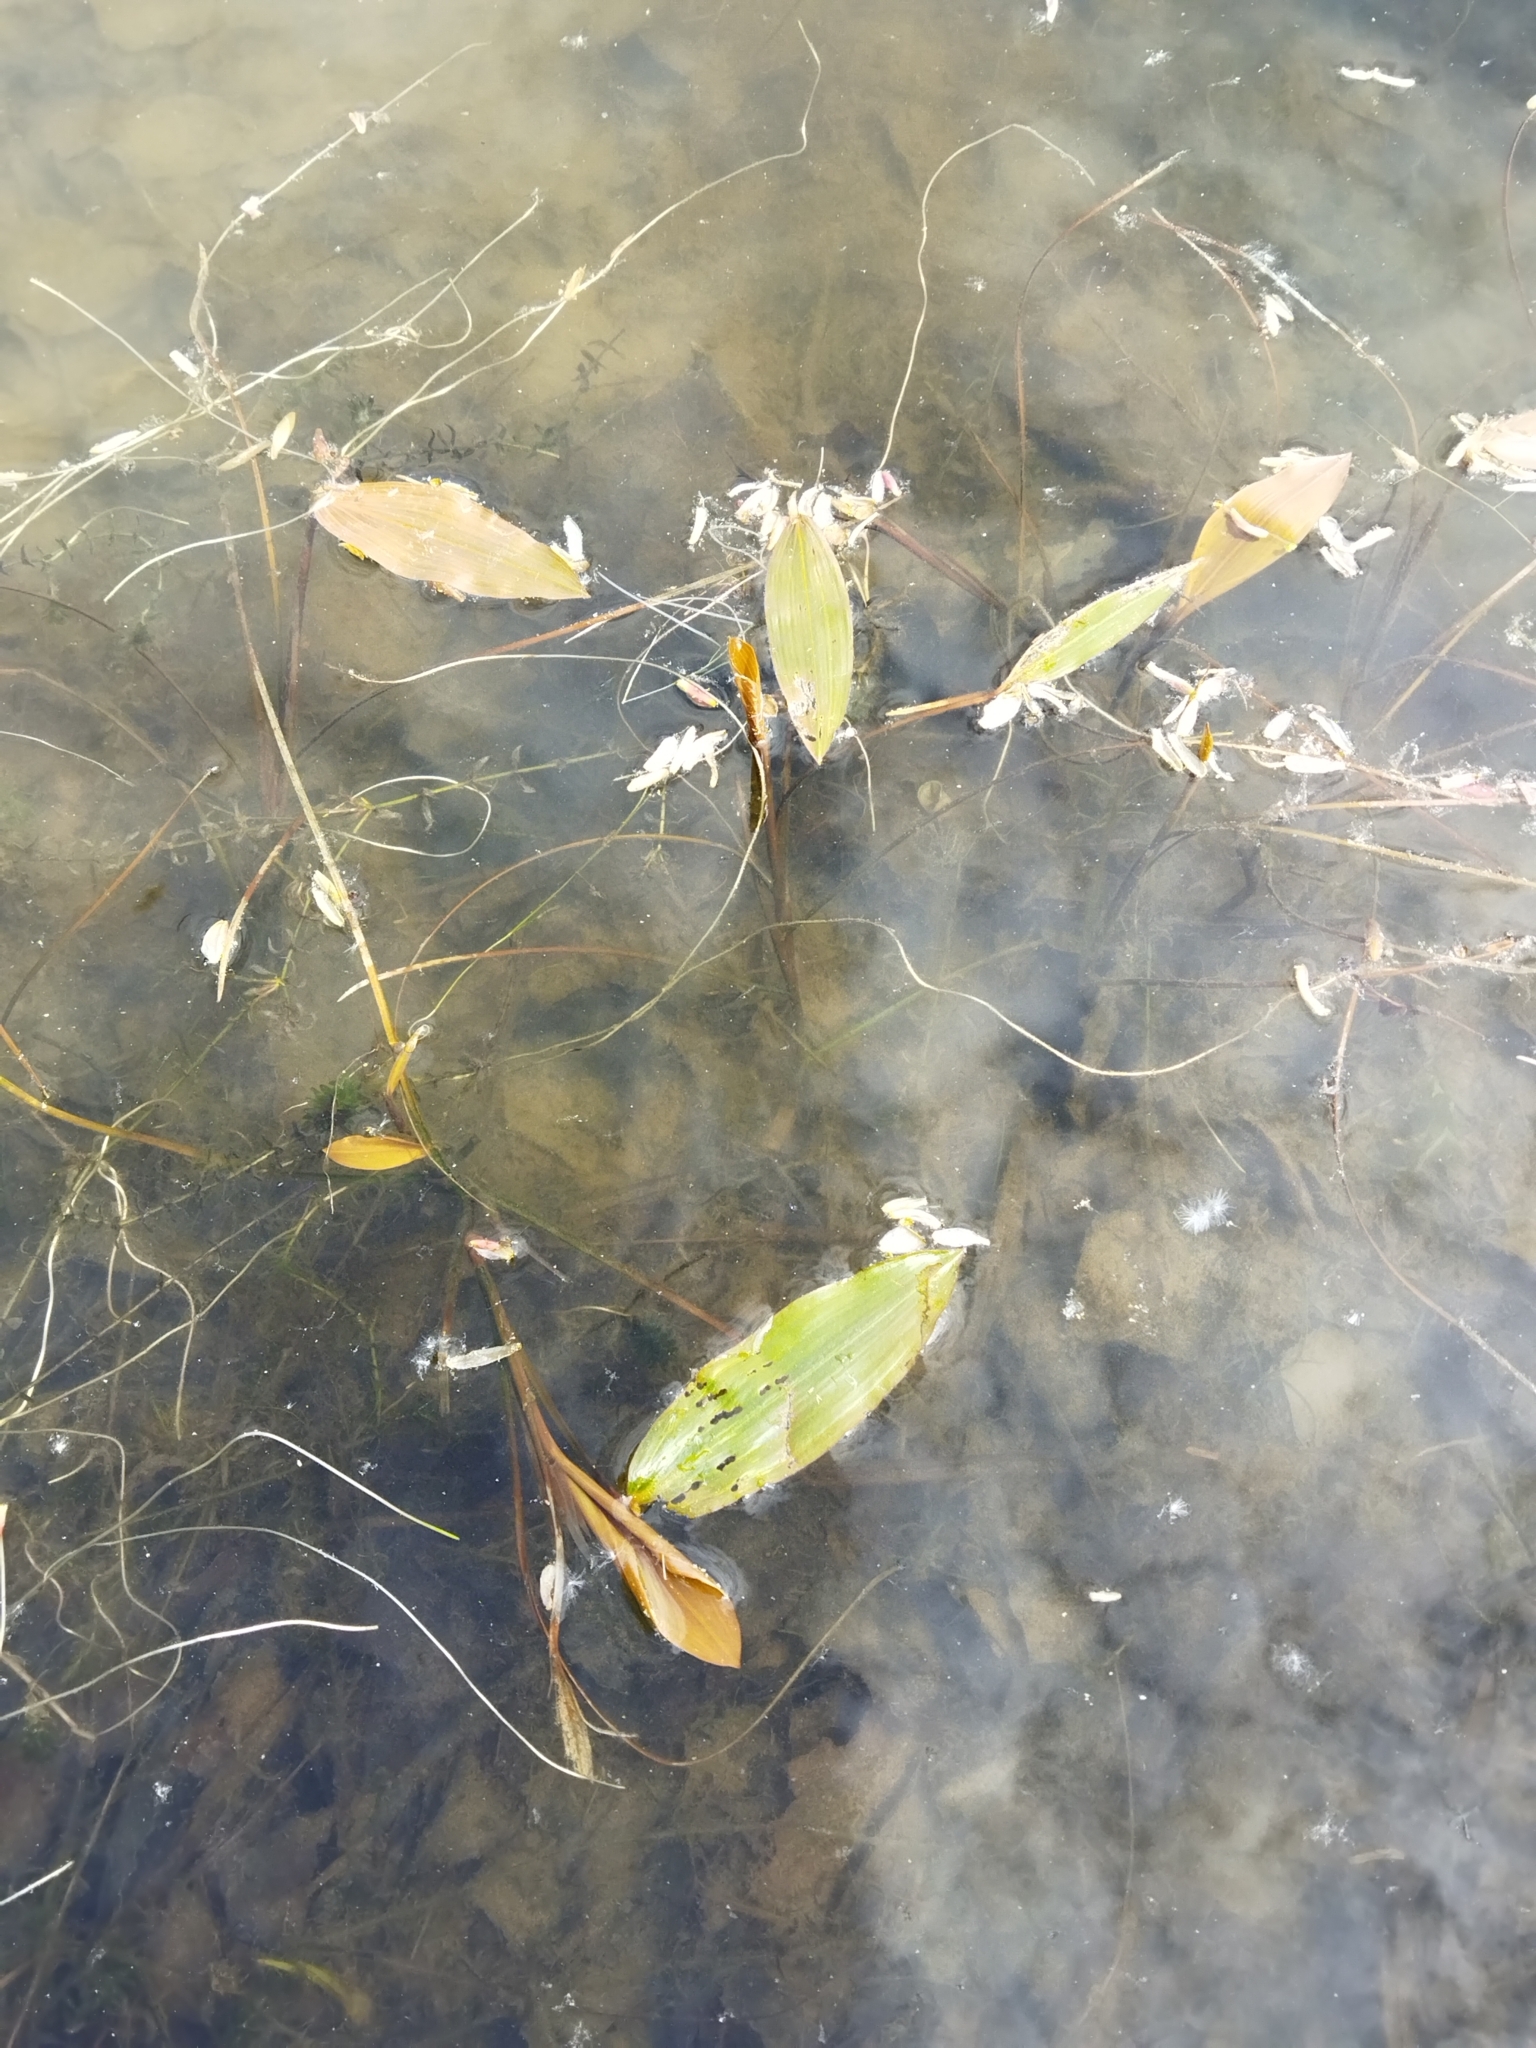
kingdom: Plantae
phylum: Tracheophyta
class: Liliopsida
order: Alismatales
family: Potamogetonaceae
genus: Potamogeton
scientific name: Potamogeton natans
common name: Broad-leaved pondweed
